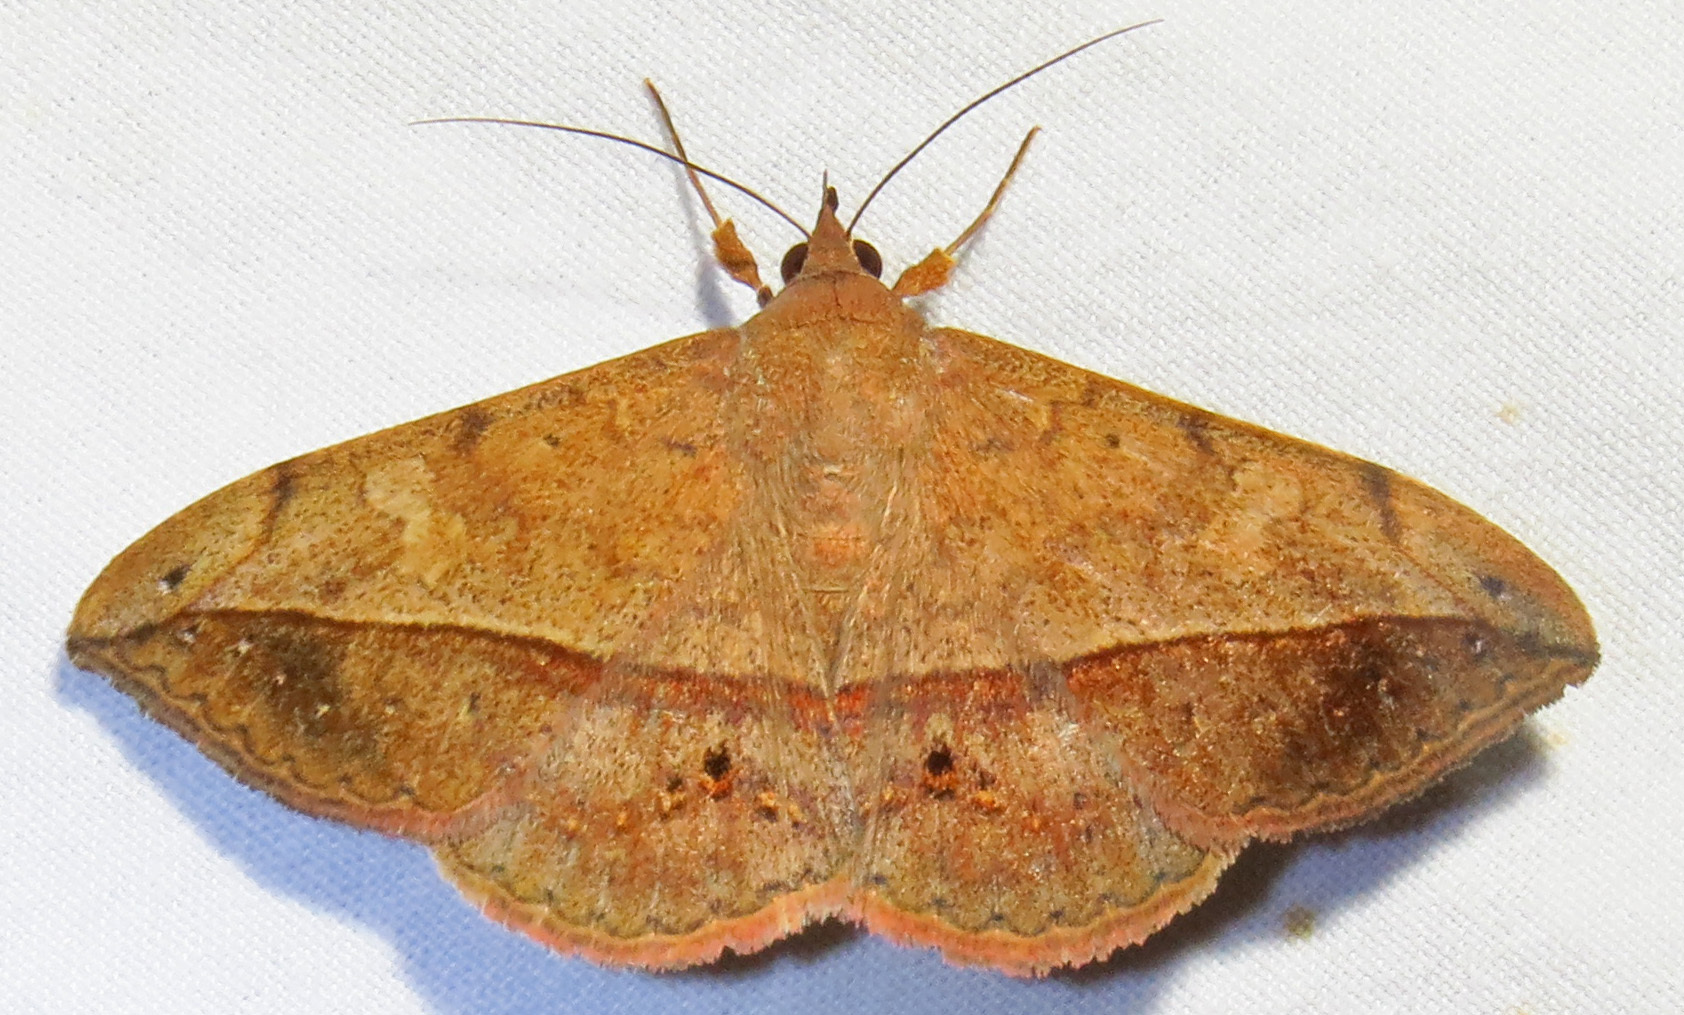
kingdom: Animalia
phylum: Arthropoda
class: Insecta
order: Lepidoptera
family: Erebidae
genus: Anticarsia
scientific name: Anticarsia gemmatalis
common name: Cutworm moth
